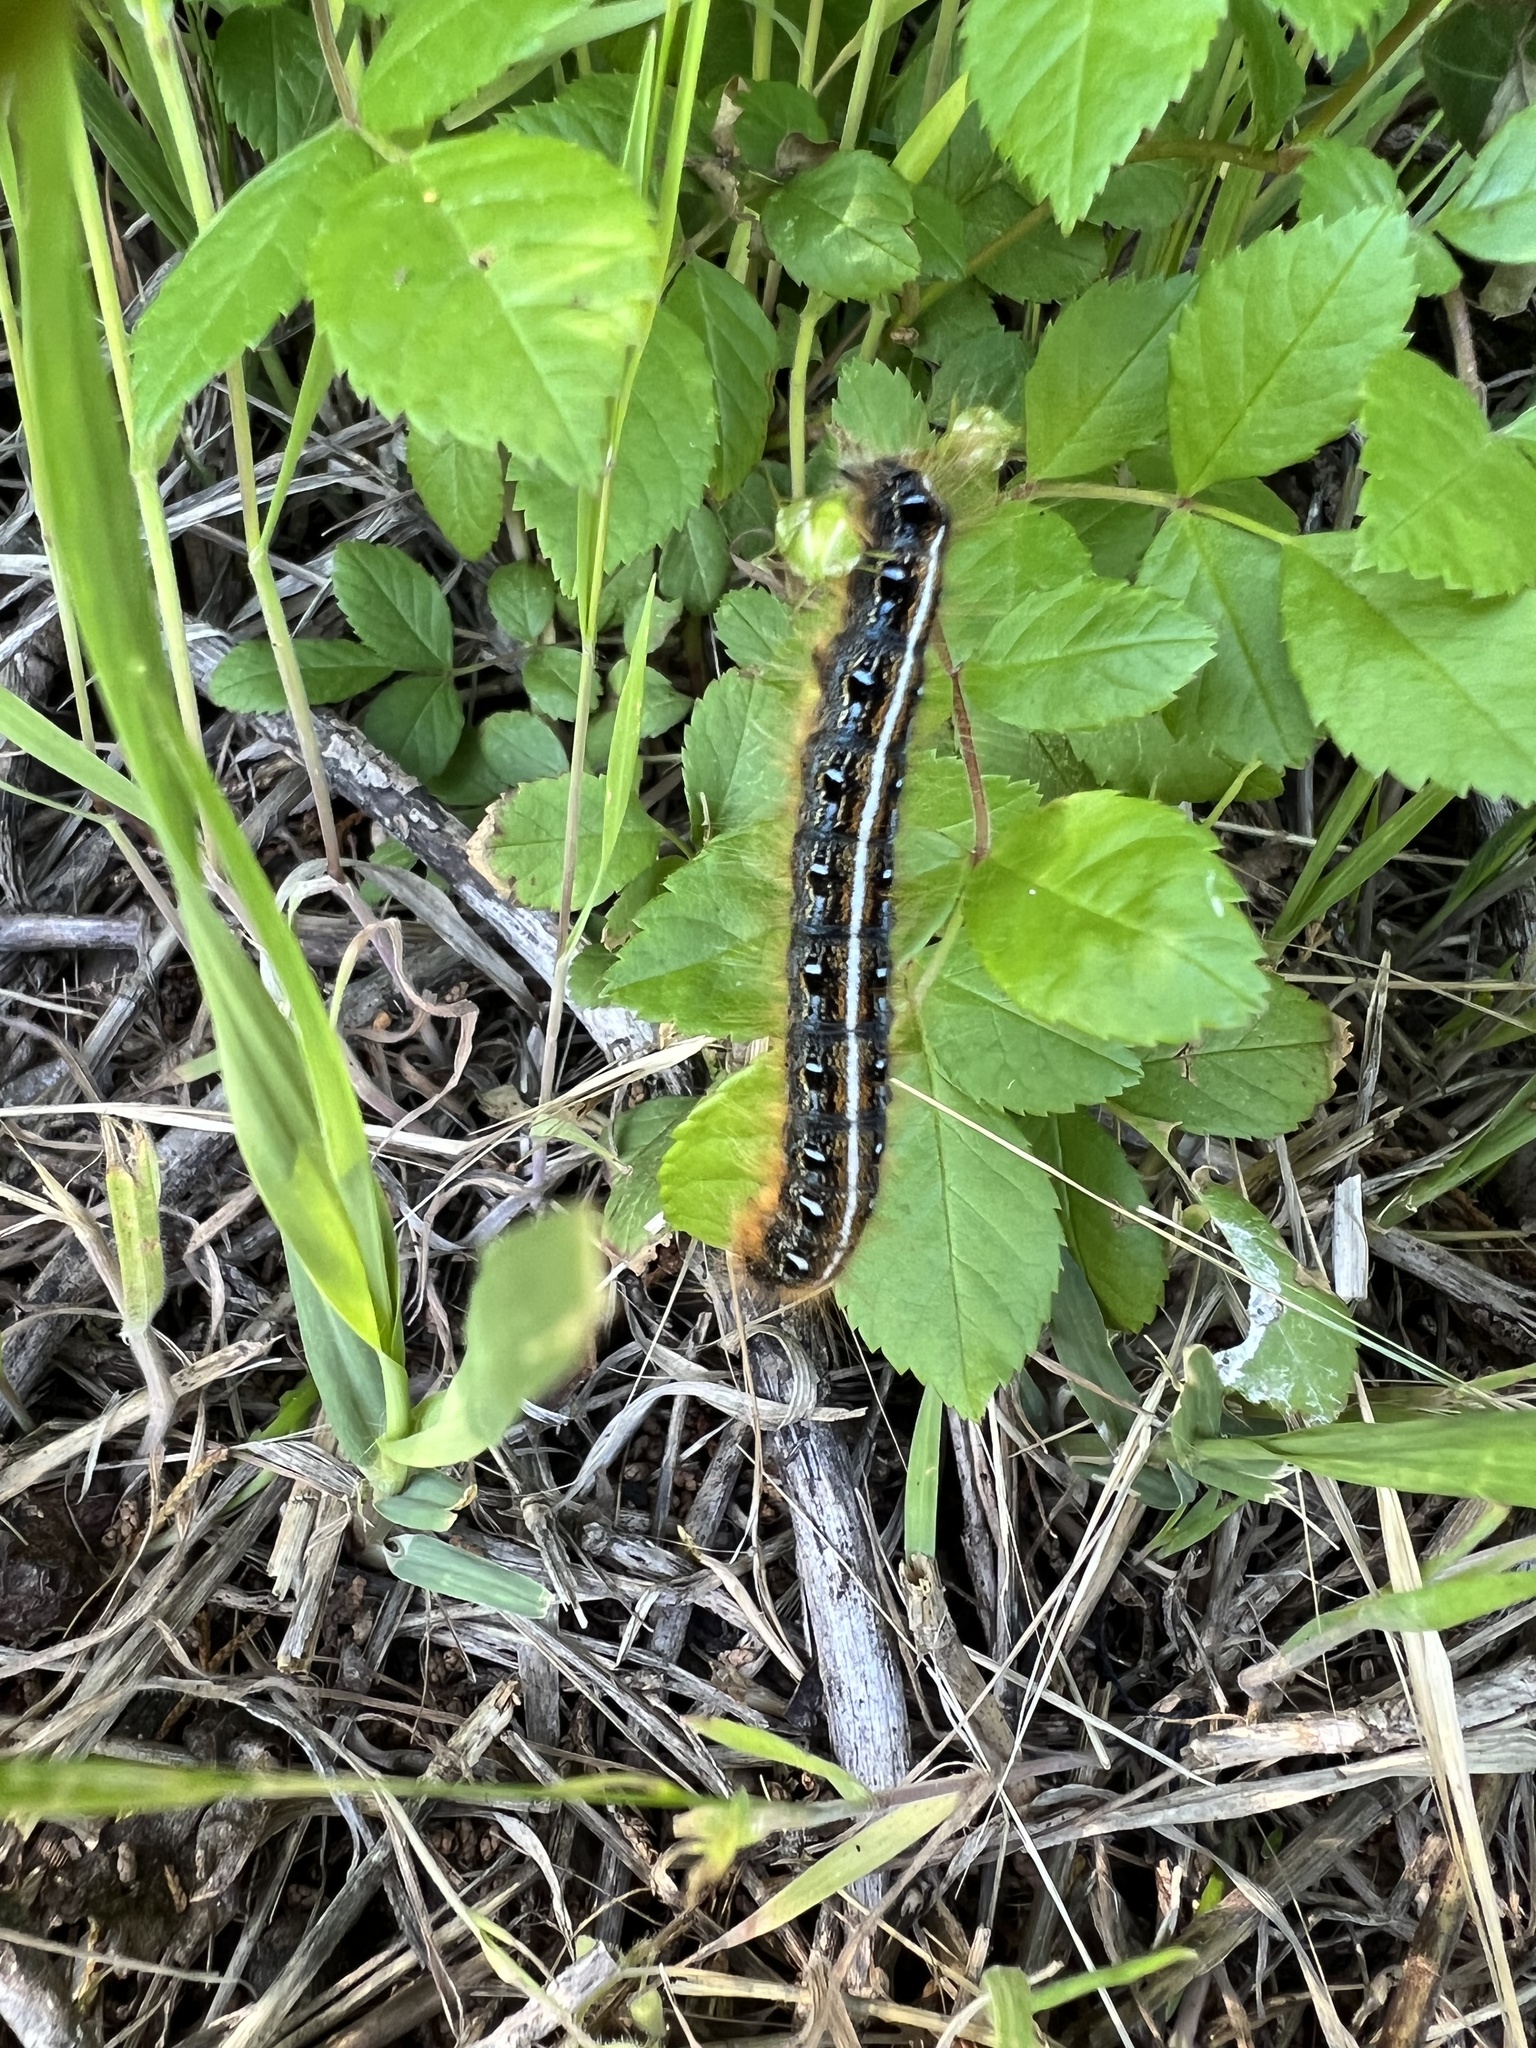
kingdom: Animalia
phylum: Arthropoda
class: Insecta
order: Lepidoptera
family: Lasiocampidae
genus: Malacosoma
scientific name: Malacosoma americana
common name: Eastern tent caterpillar moth
